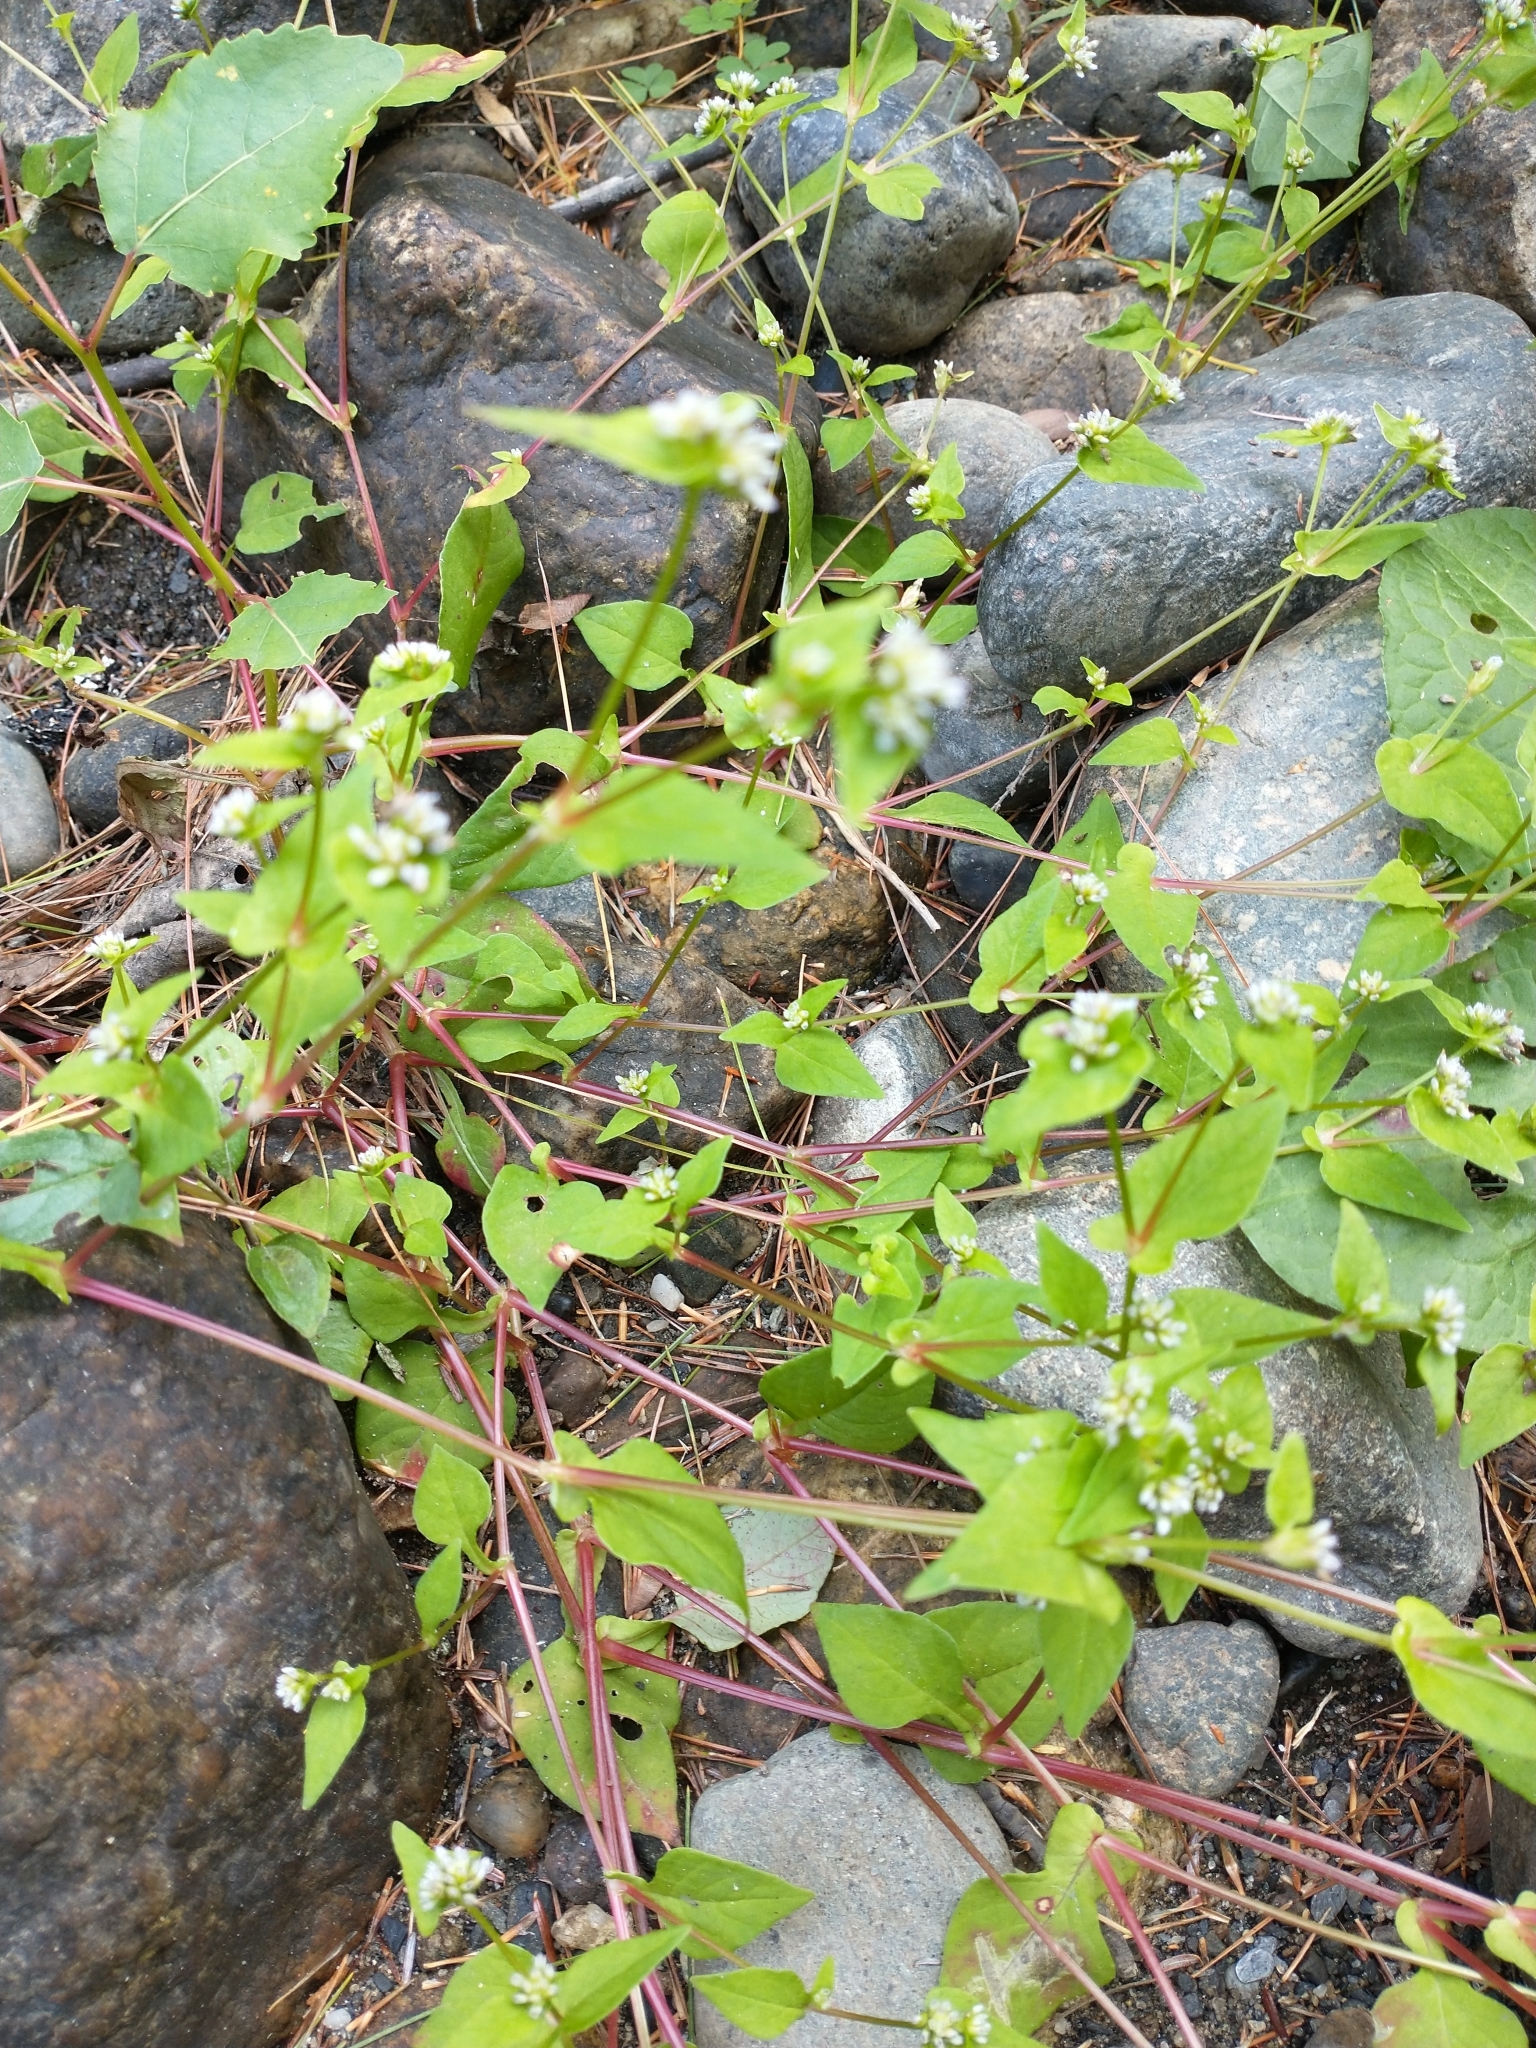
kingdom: Plantae
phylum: Tracheophyta
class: Magnoliopsida
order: Caryophyllales
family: Polygonaceae
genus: Persicaria
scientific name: Persicaria nepalensis
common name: Nepal persicaria
